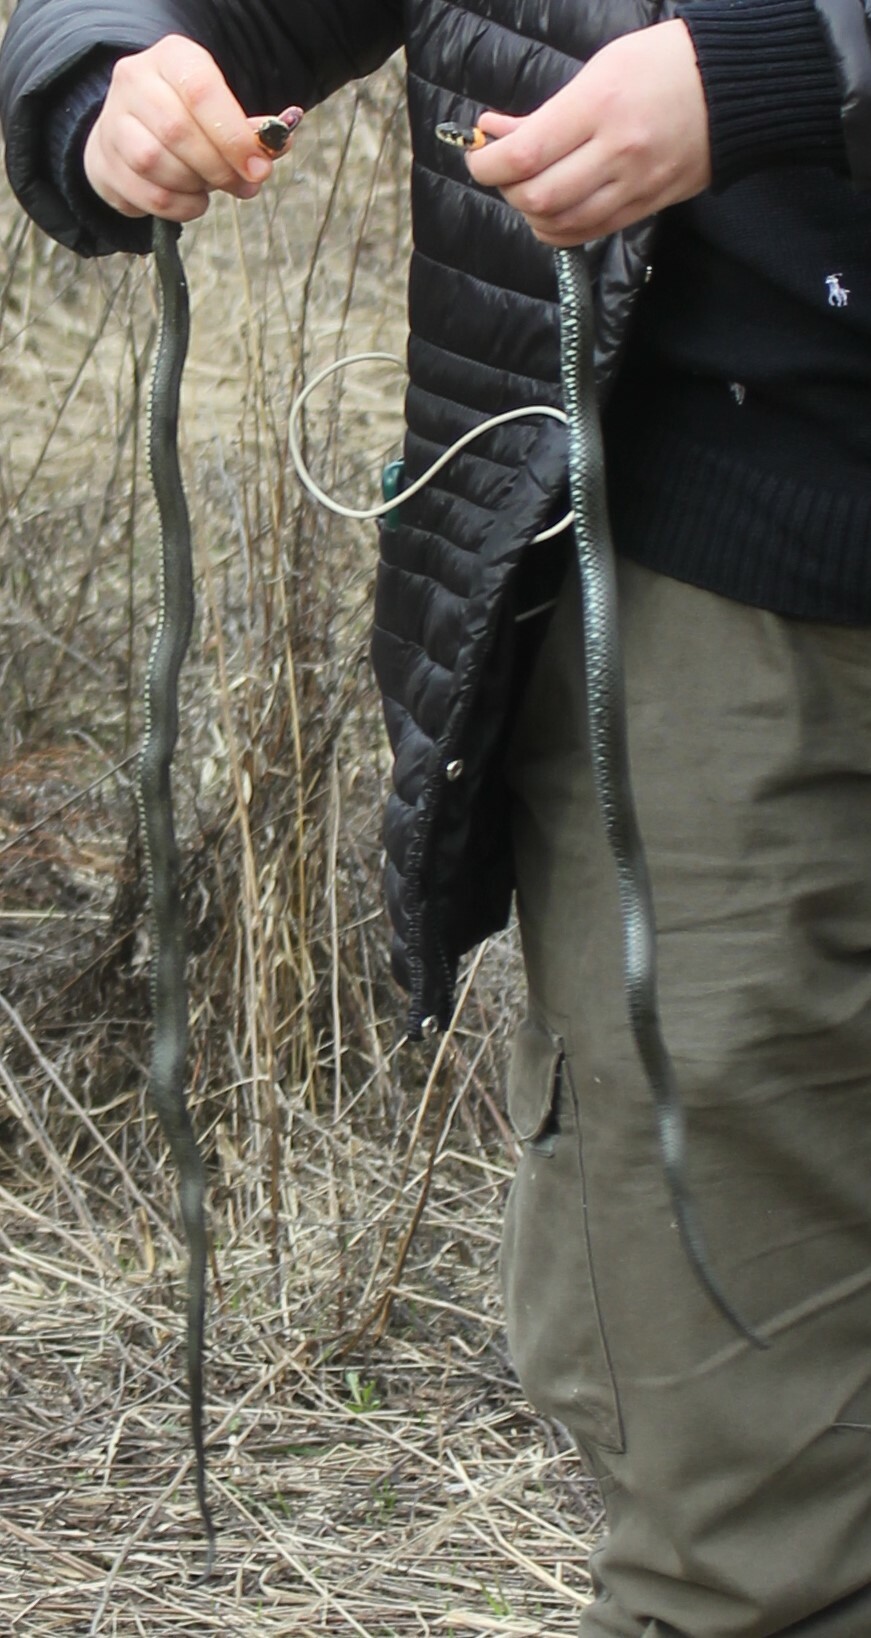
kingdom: Animalia
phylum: Chordata
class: Squamata
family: Colubridae
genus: Natrix
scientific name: Natrix natrix
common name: Grass snake
